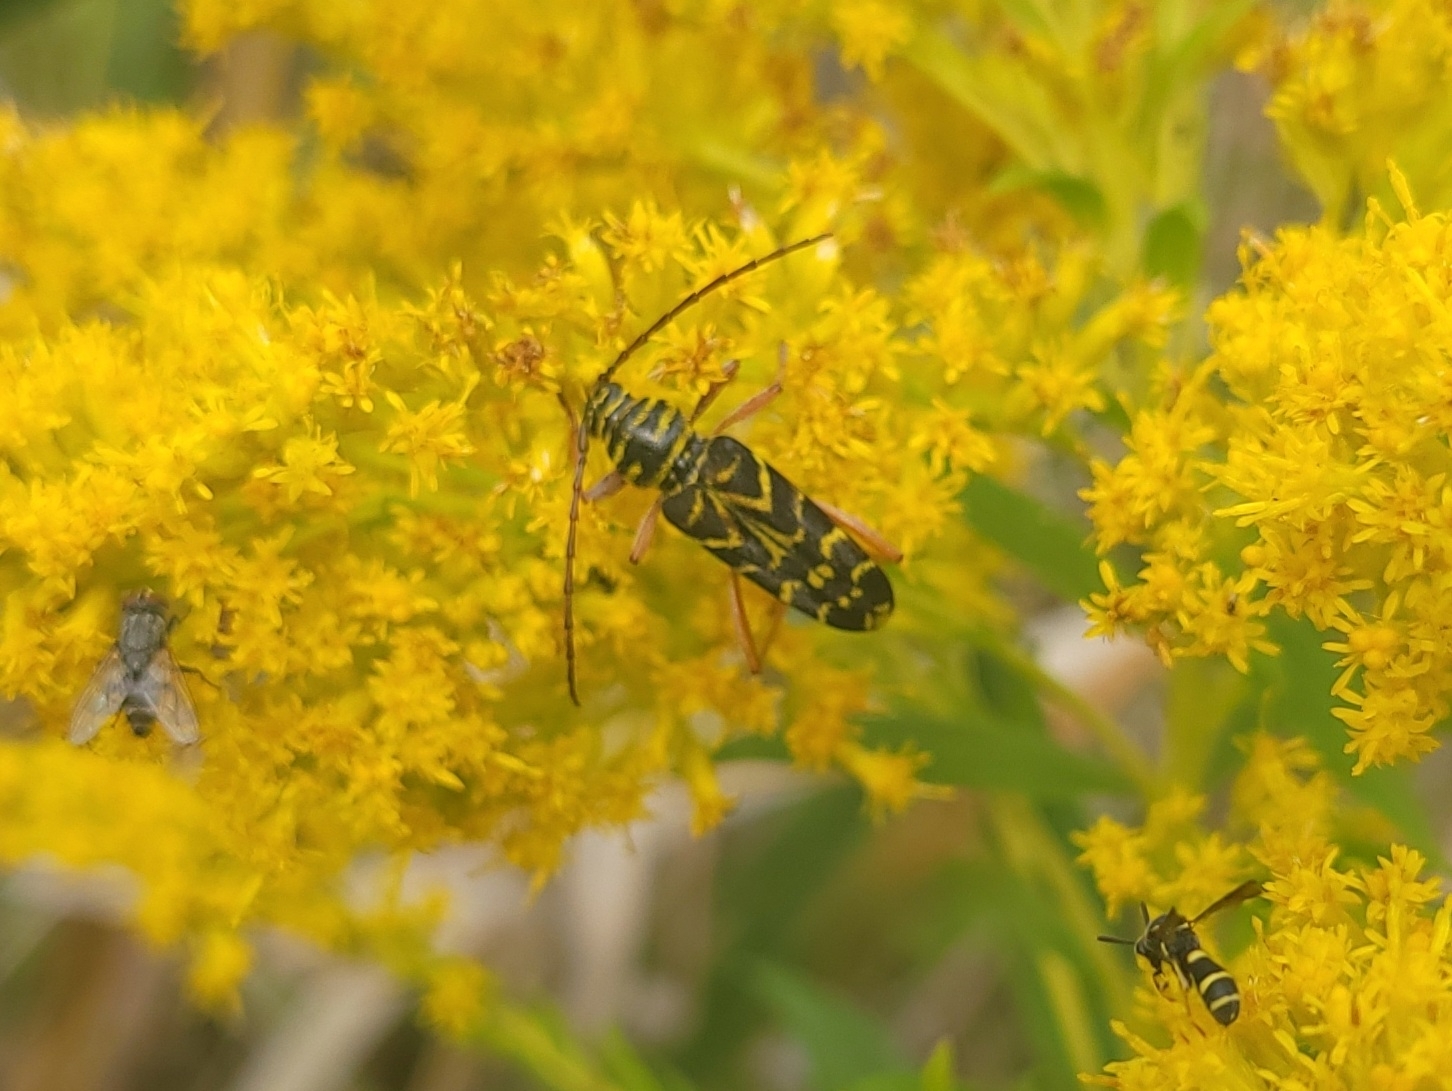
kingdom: Animalia
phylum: Arthropoda
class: Insecta
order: Coleoptera
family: Cerambycidae
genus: Megacyllene
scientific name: Megacyllene robiniae
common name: Locust borer
